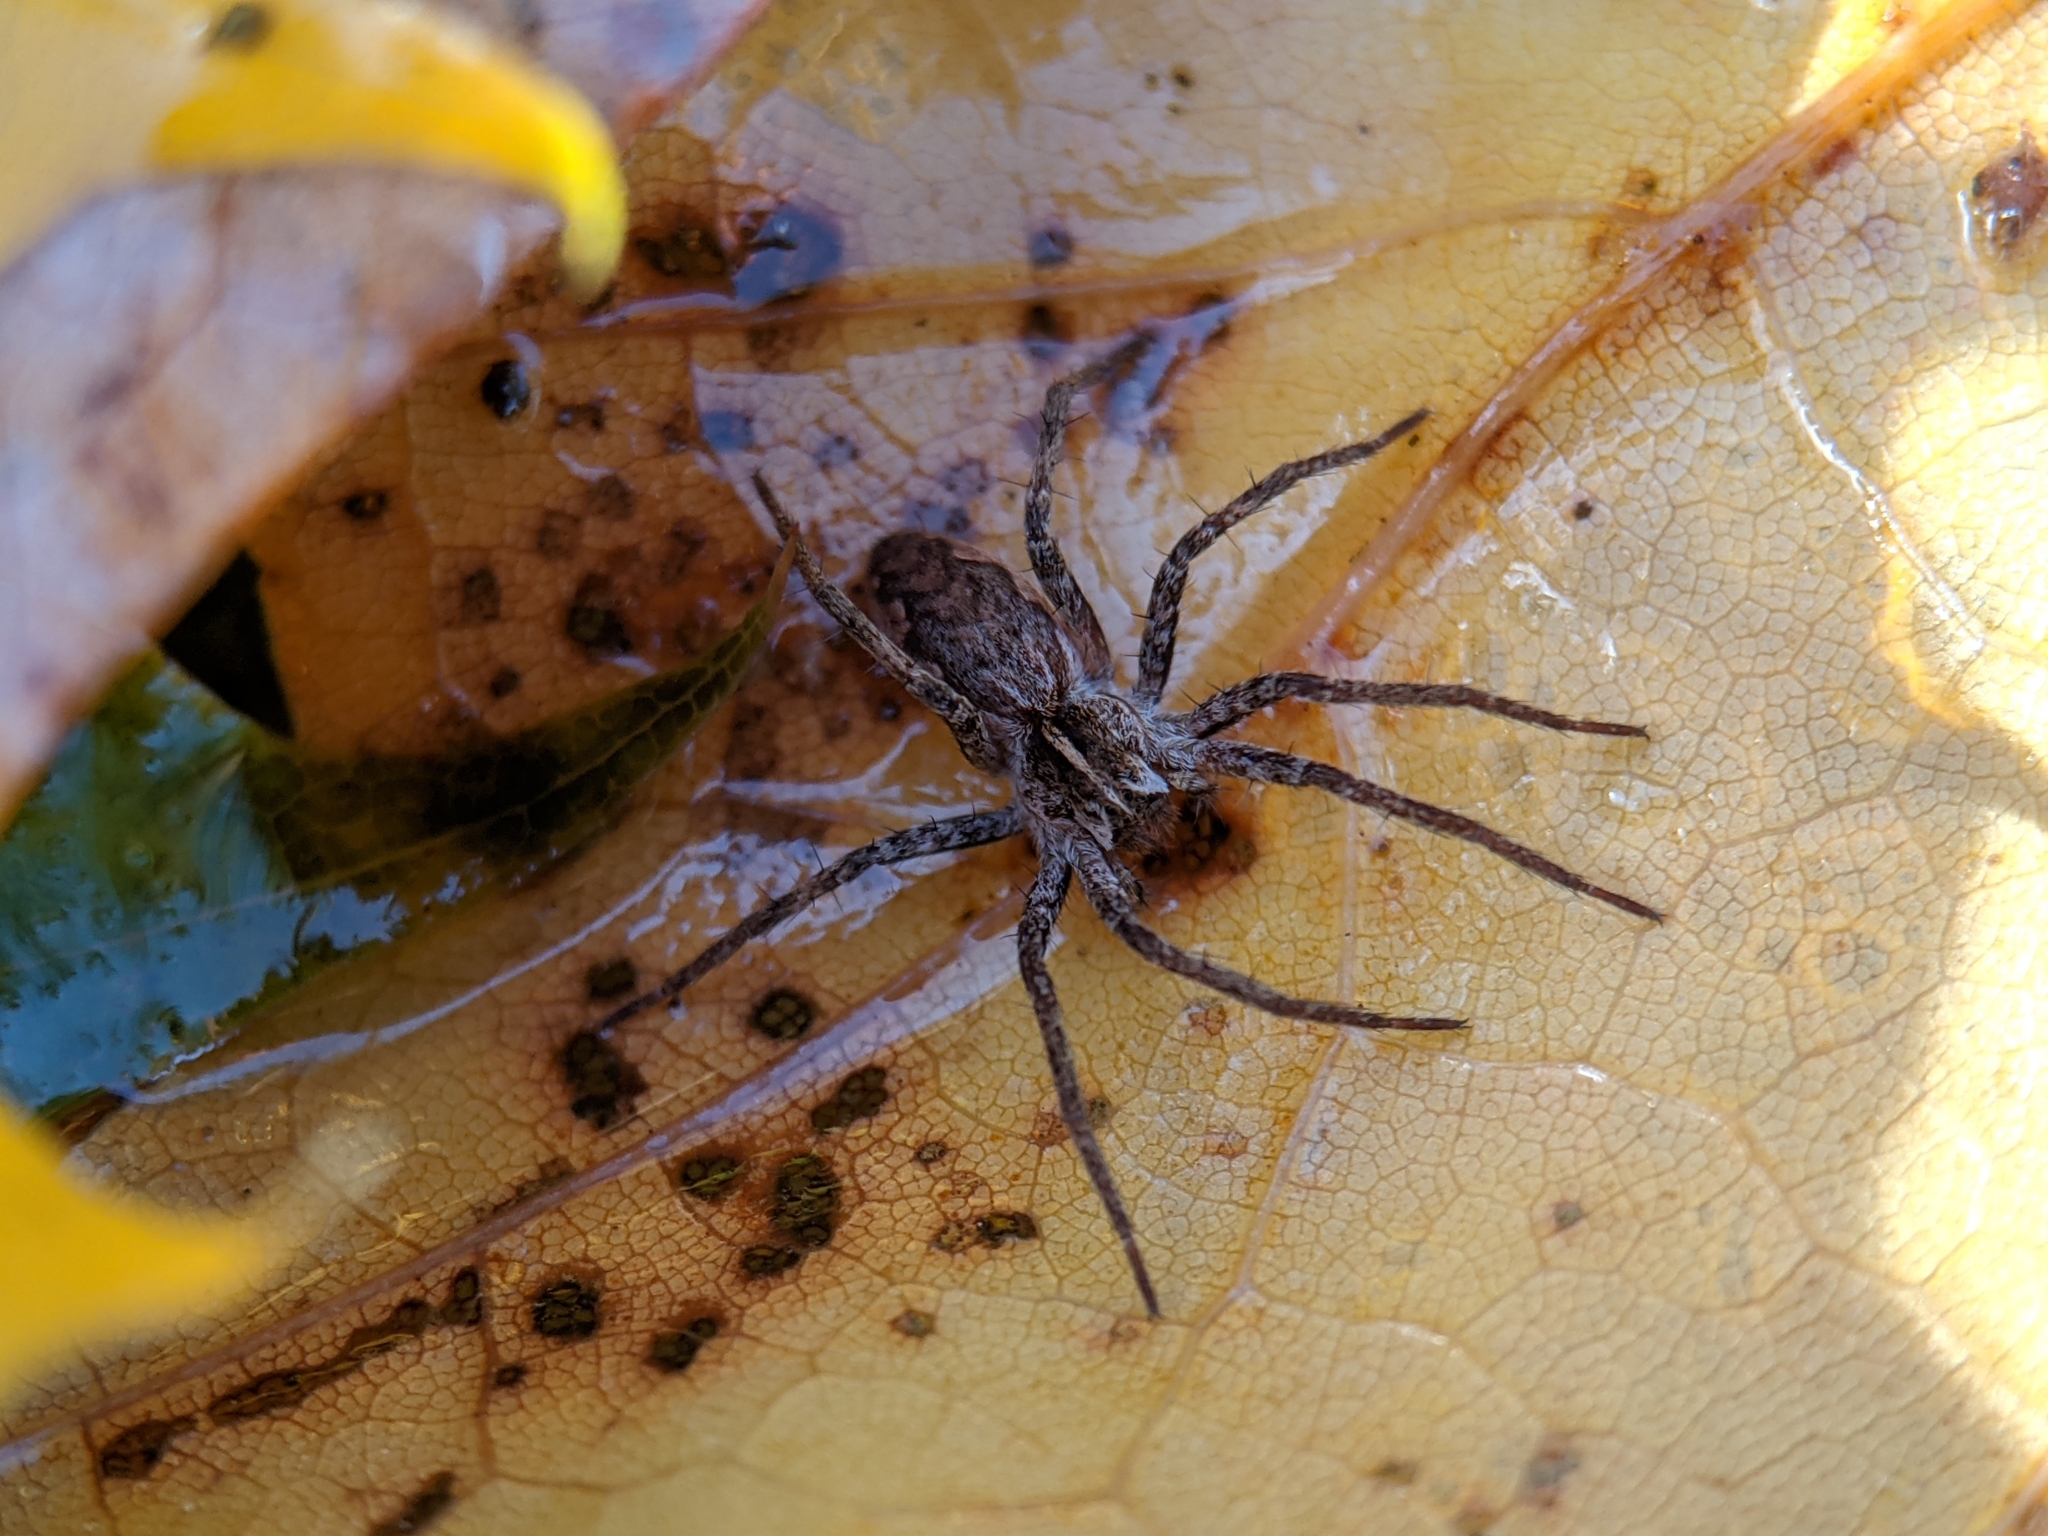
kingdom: Animalia
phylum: Arthropoda
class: Arachnida
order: Araneae
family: Pisauridae
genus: Pisaura
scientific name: Pisaura mirabilis
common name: Tent spider
